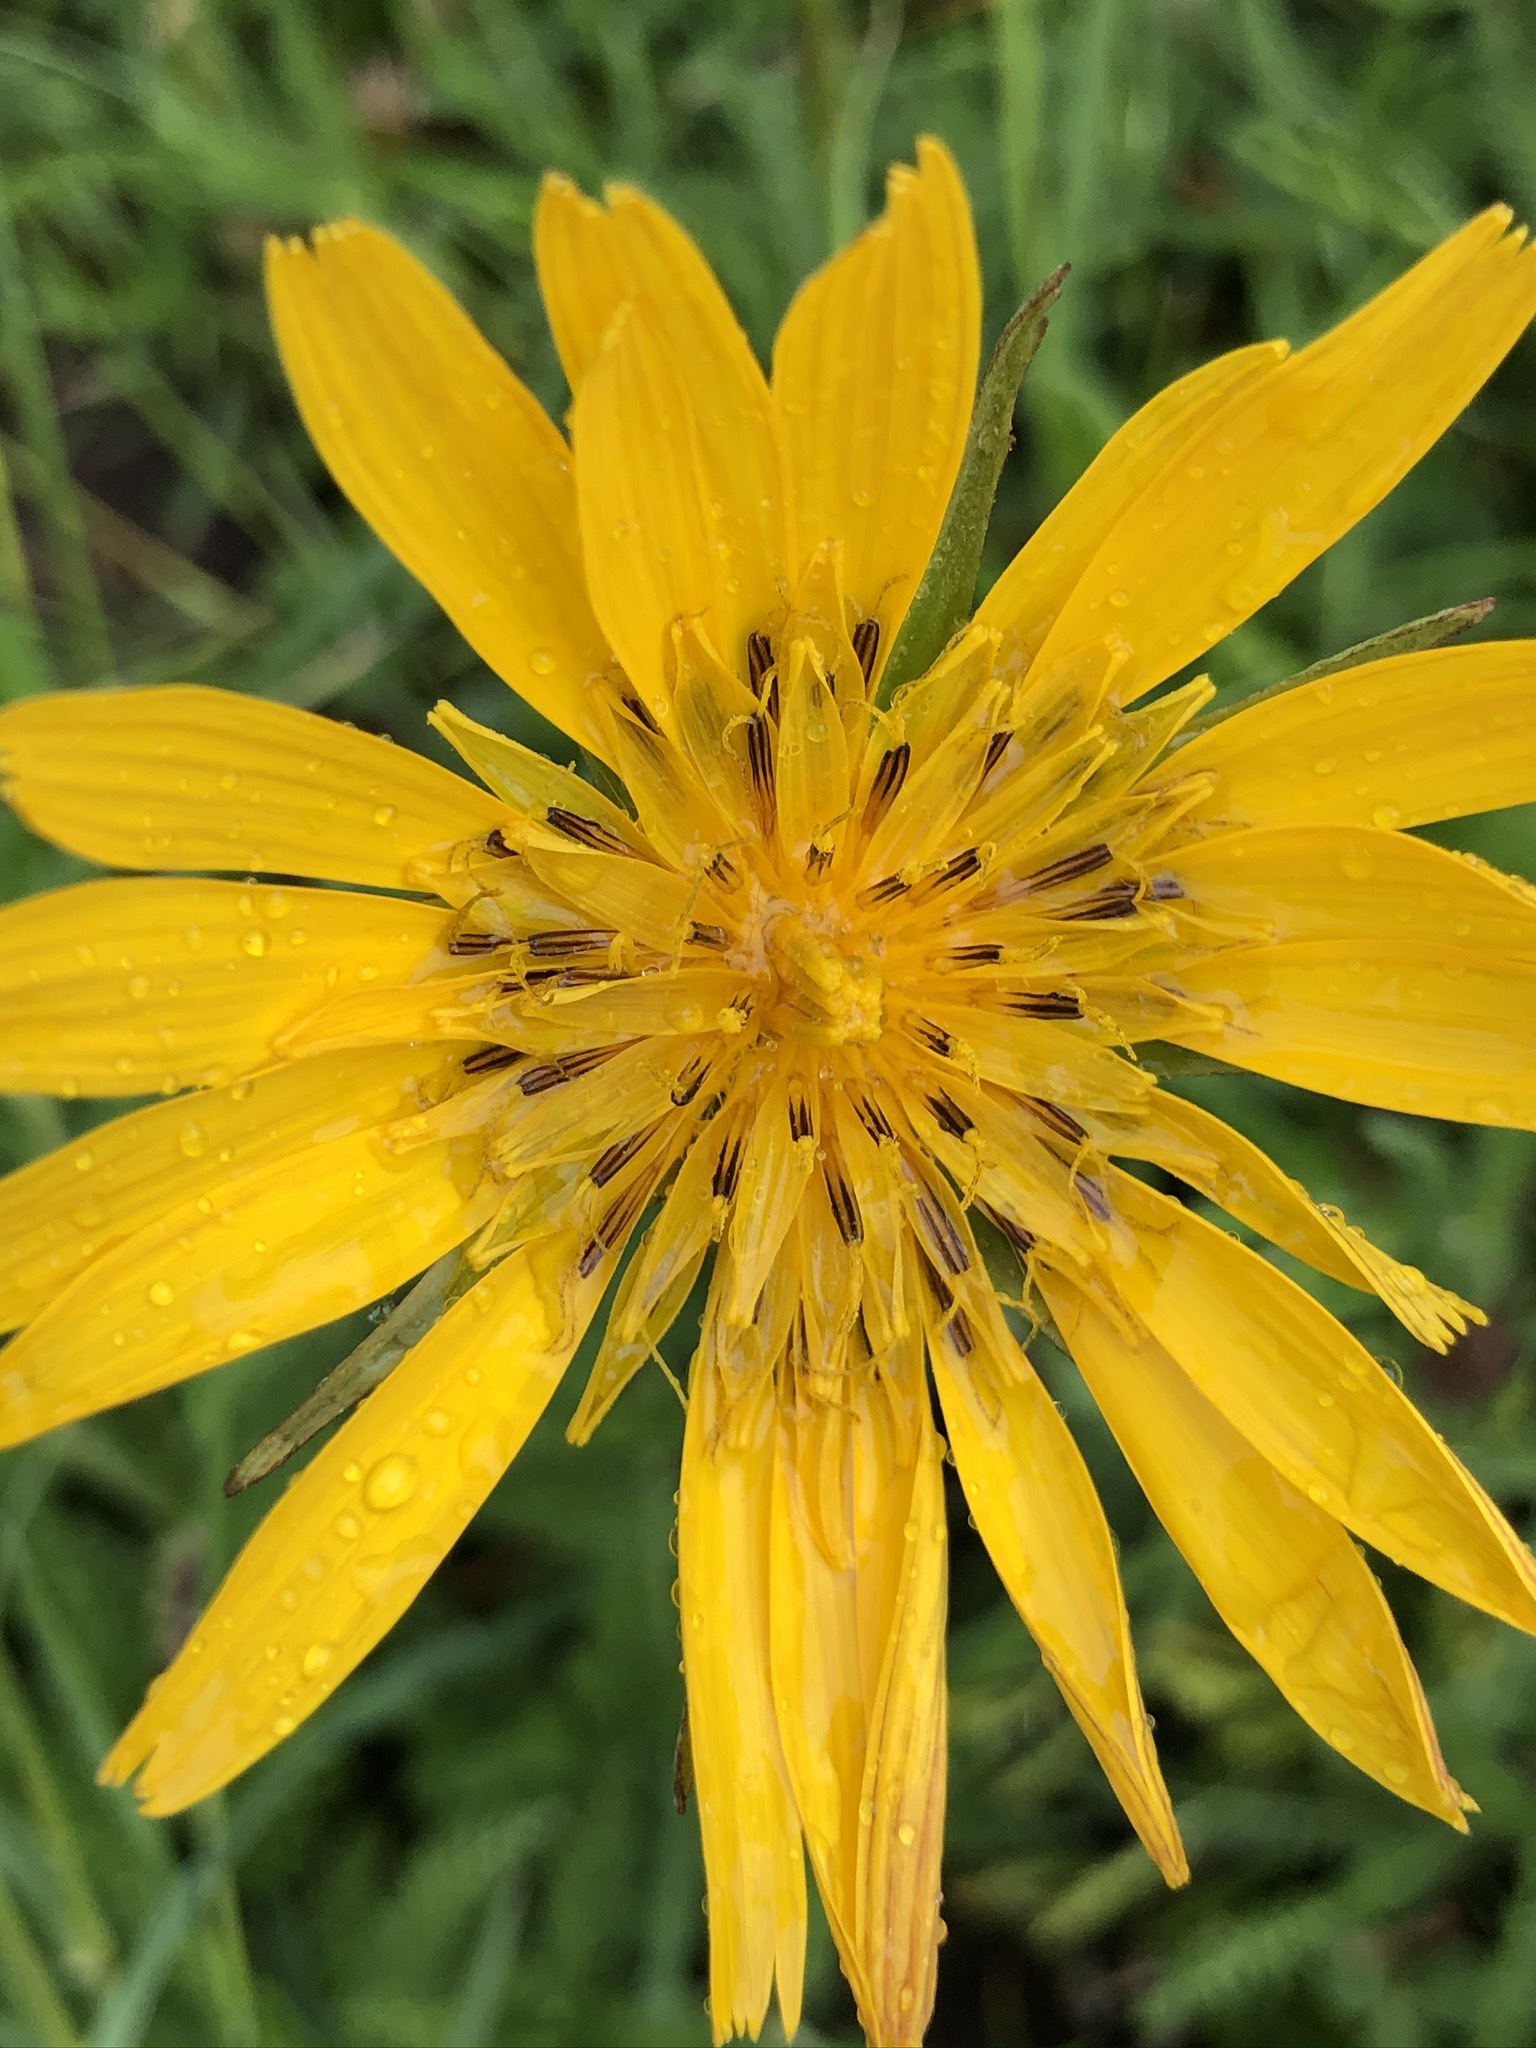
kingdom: Plantae
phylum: Tracheophyta
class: Magnoliopsida
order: Asterales
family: Asteraceae
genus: Tragopogon
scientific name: Tragopogon orientalis
